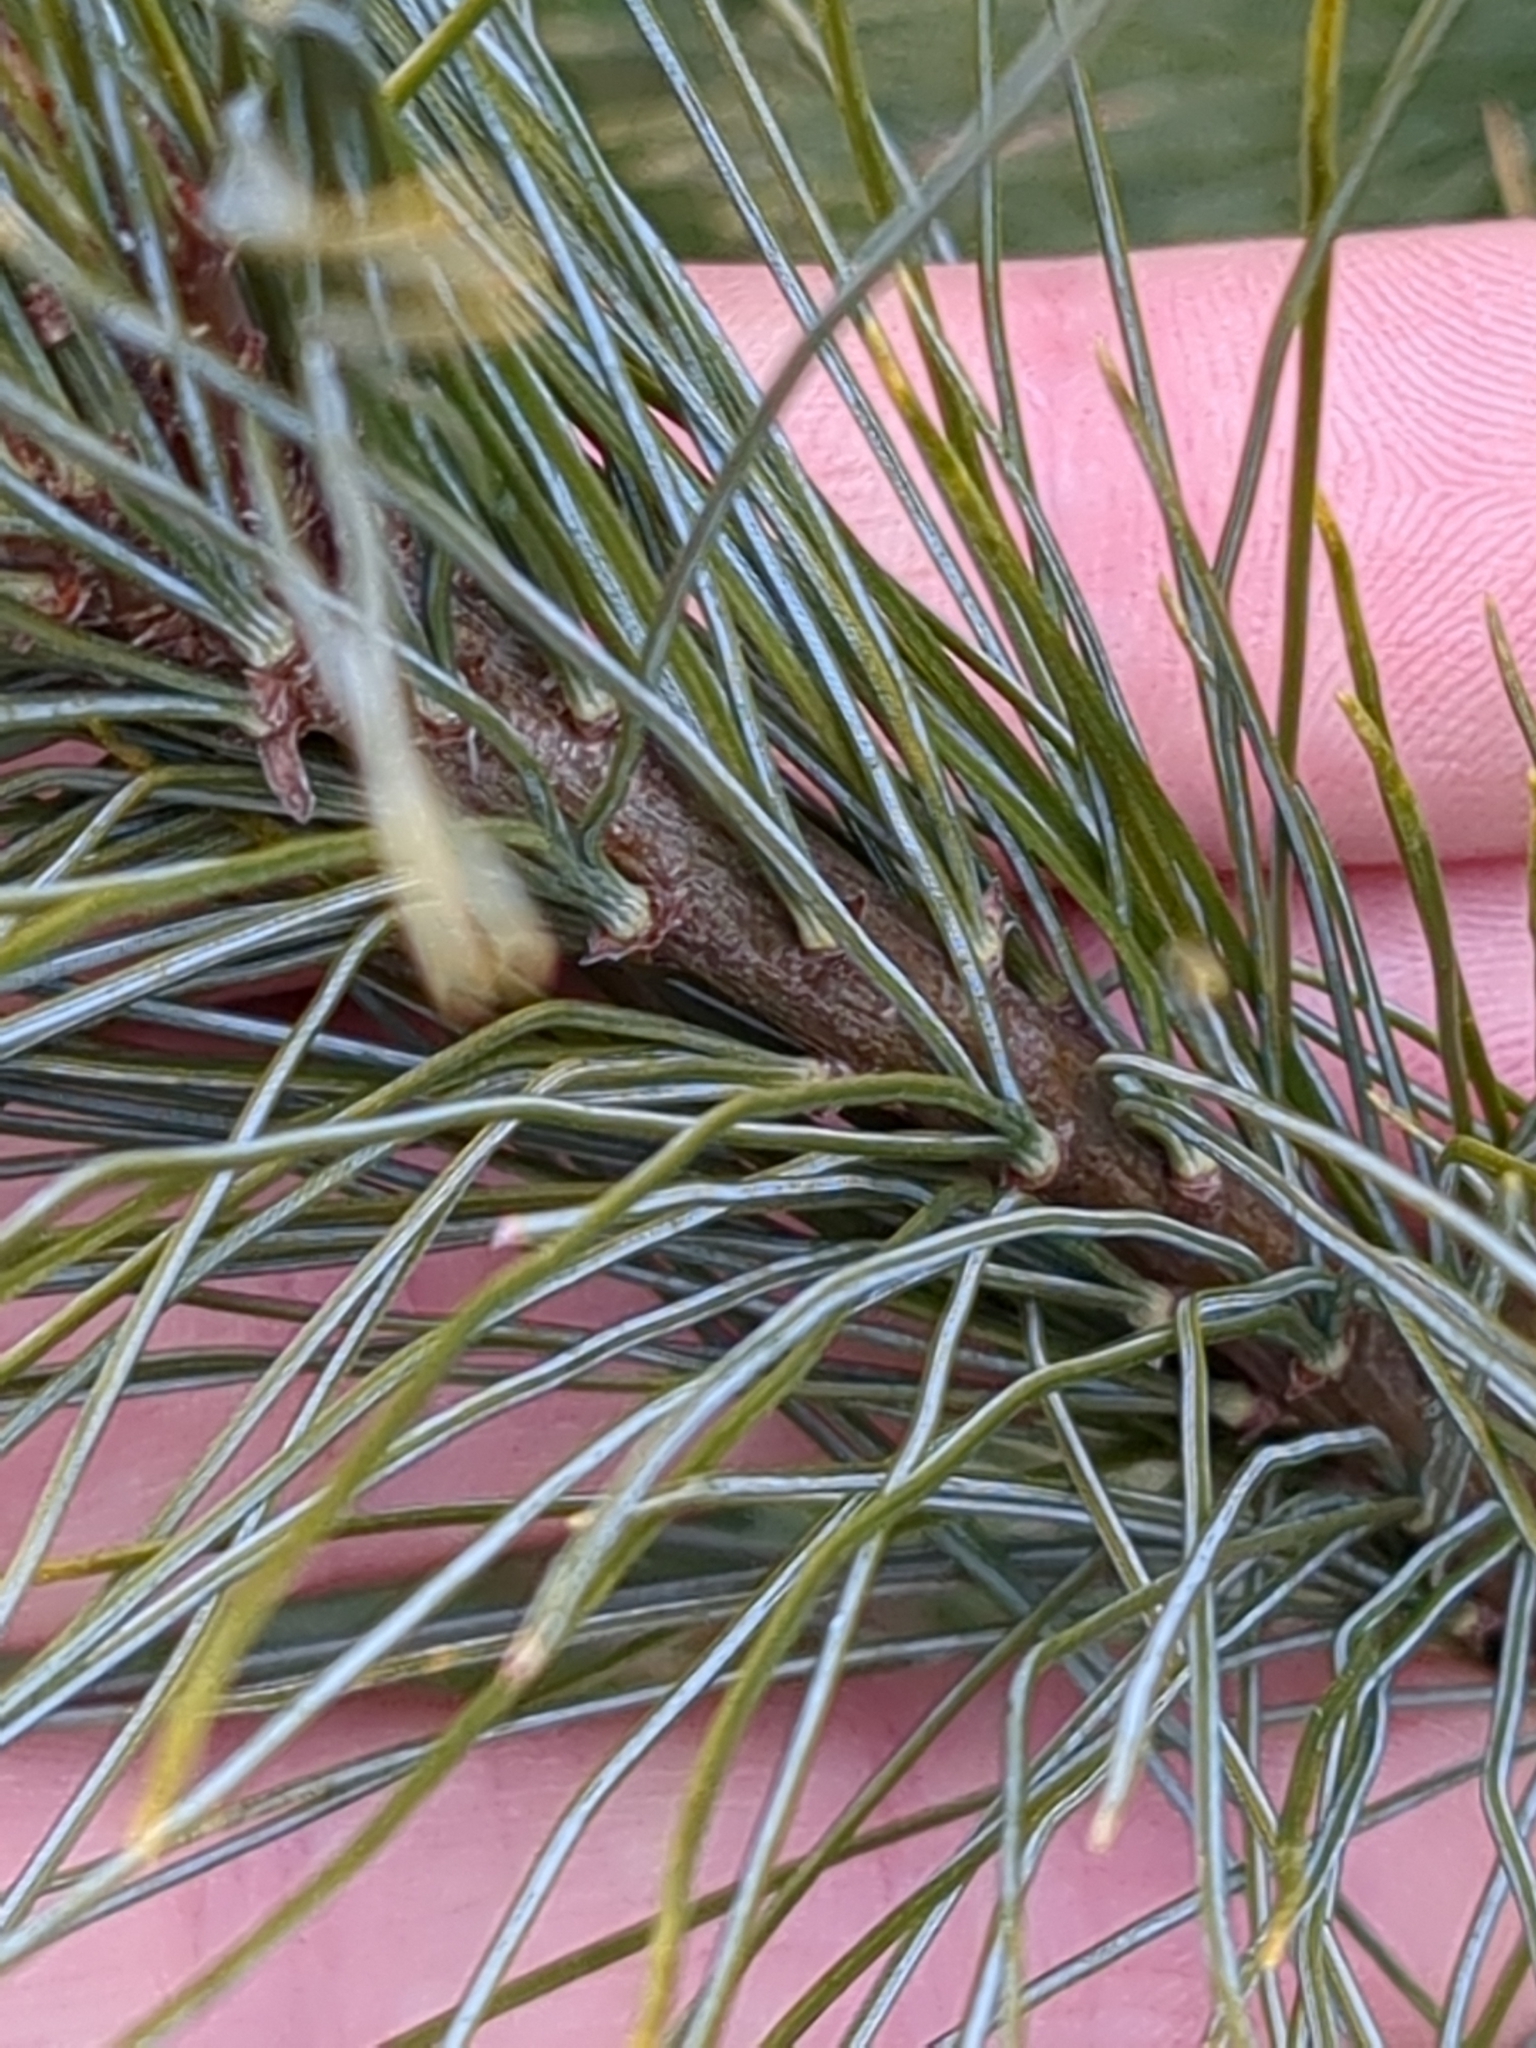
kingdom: Plantae
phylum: Tracheophyta
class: Pinopsida
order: Pinales
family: Pinaceae
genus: Pinus
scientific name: Pinus strobus
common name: Weymouth pine
